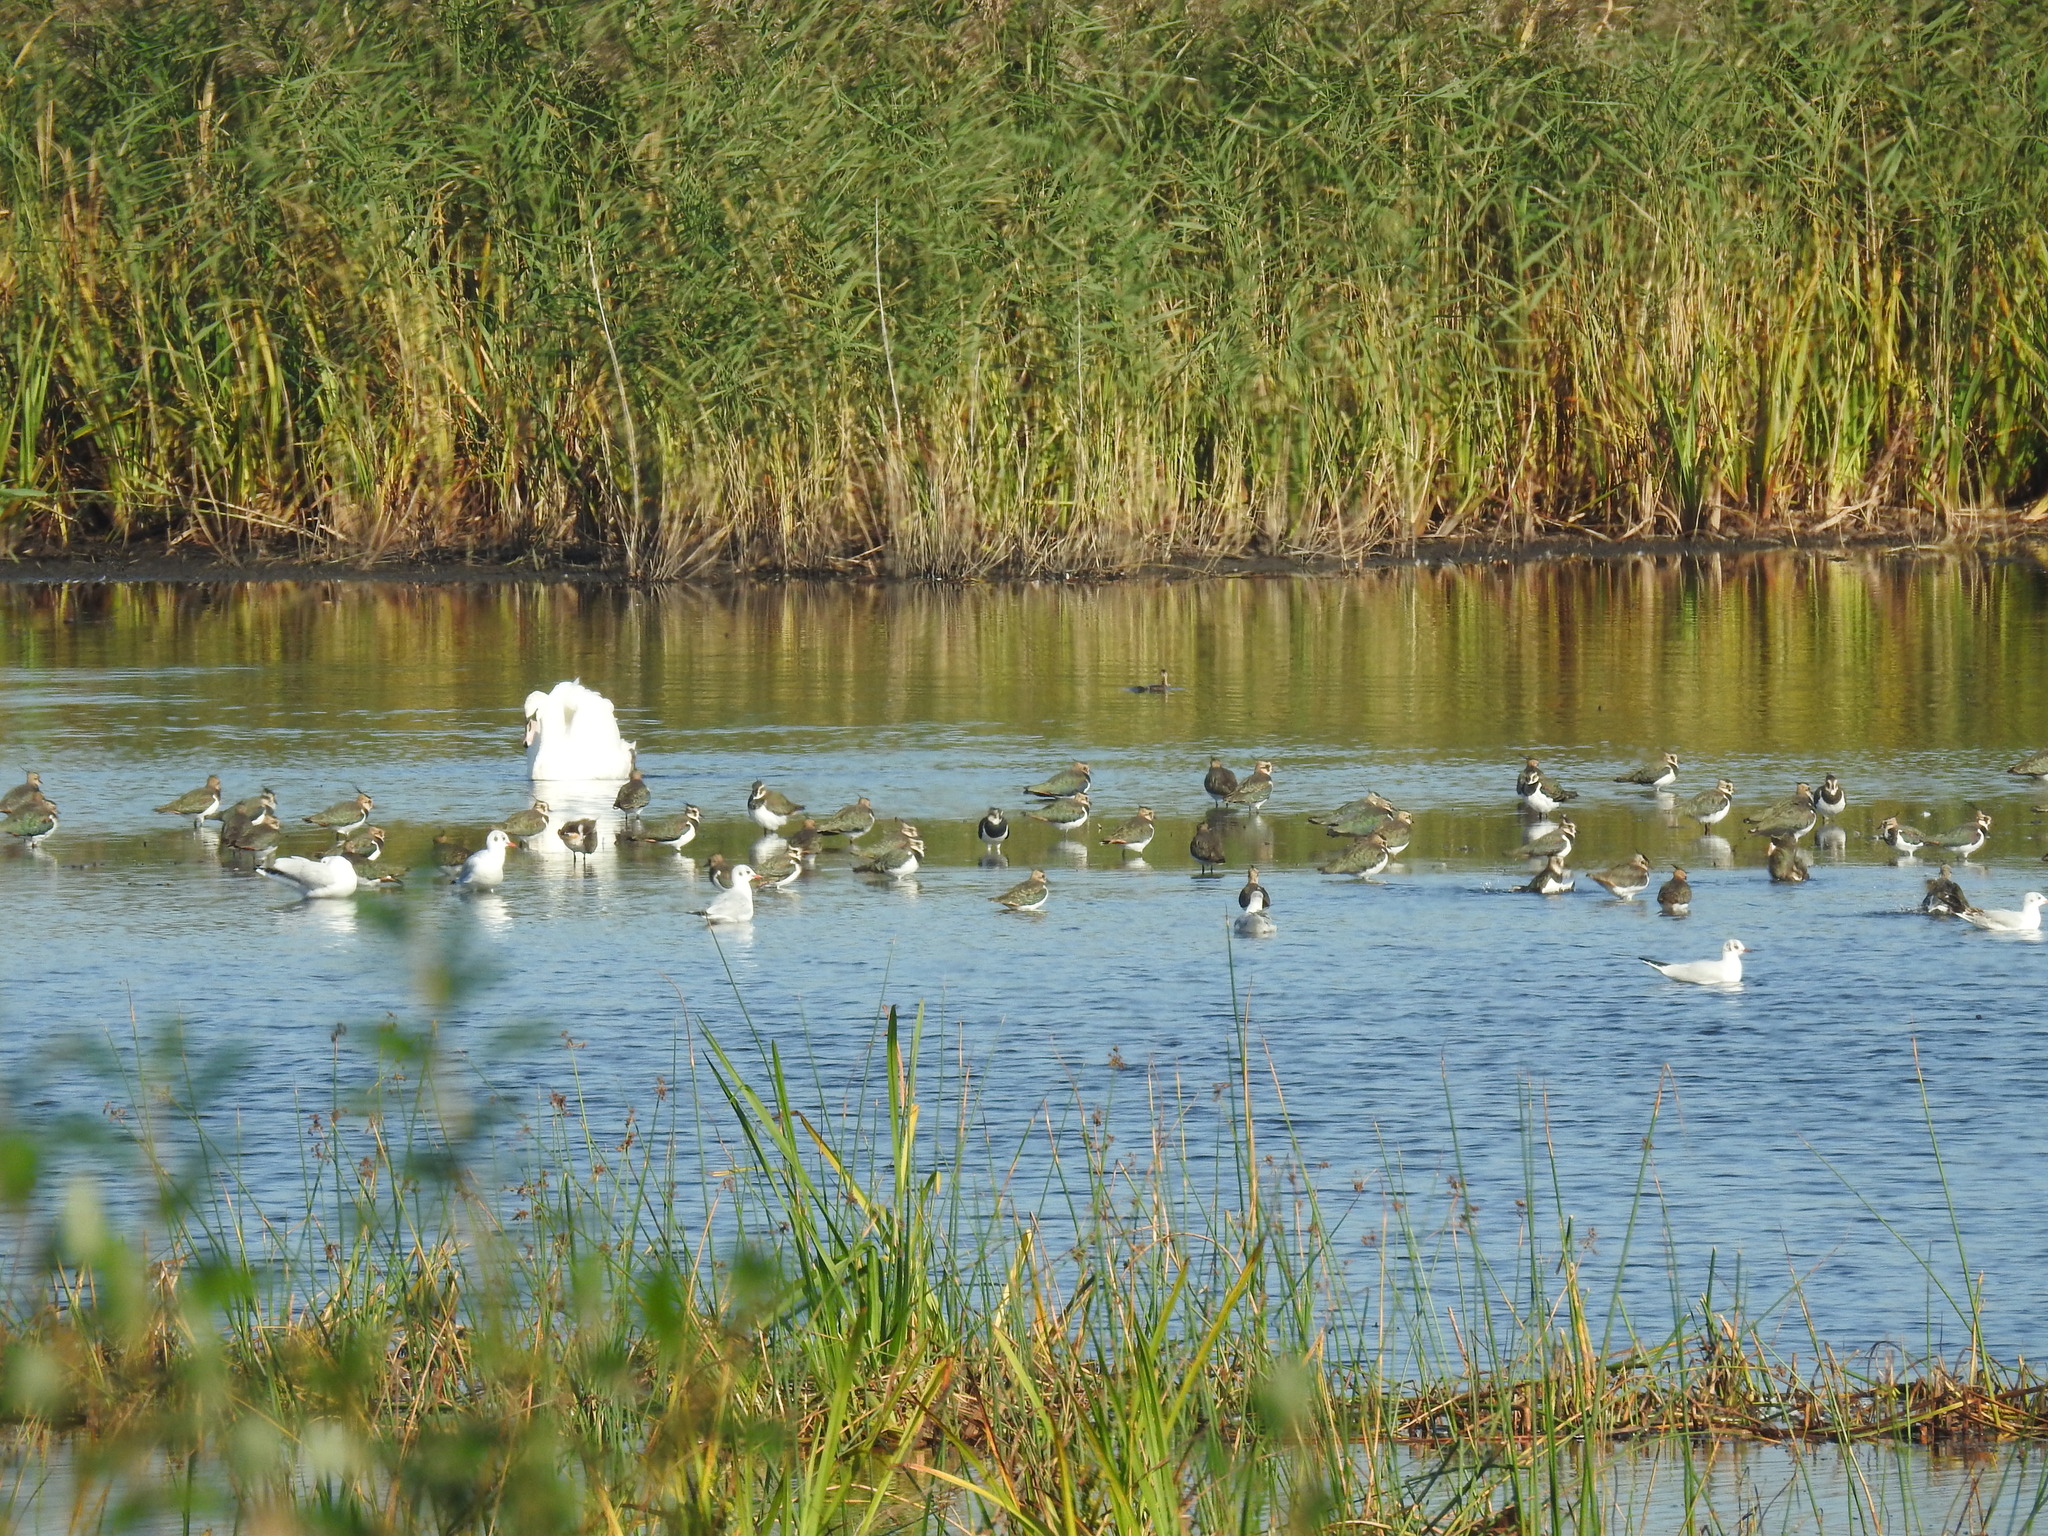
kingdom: Animalia
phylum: Chordata
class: Aves
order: Charadriiformes
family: Charadriidae
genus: Vanellus
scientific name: Vanellus vanellus
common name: Northern lapwing
